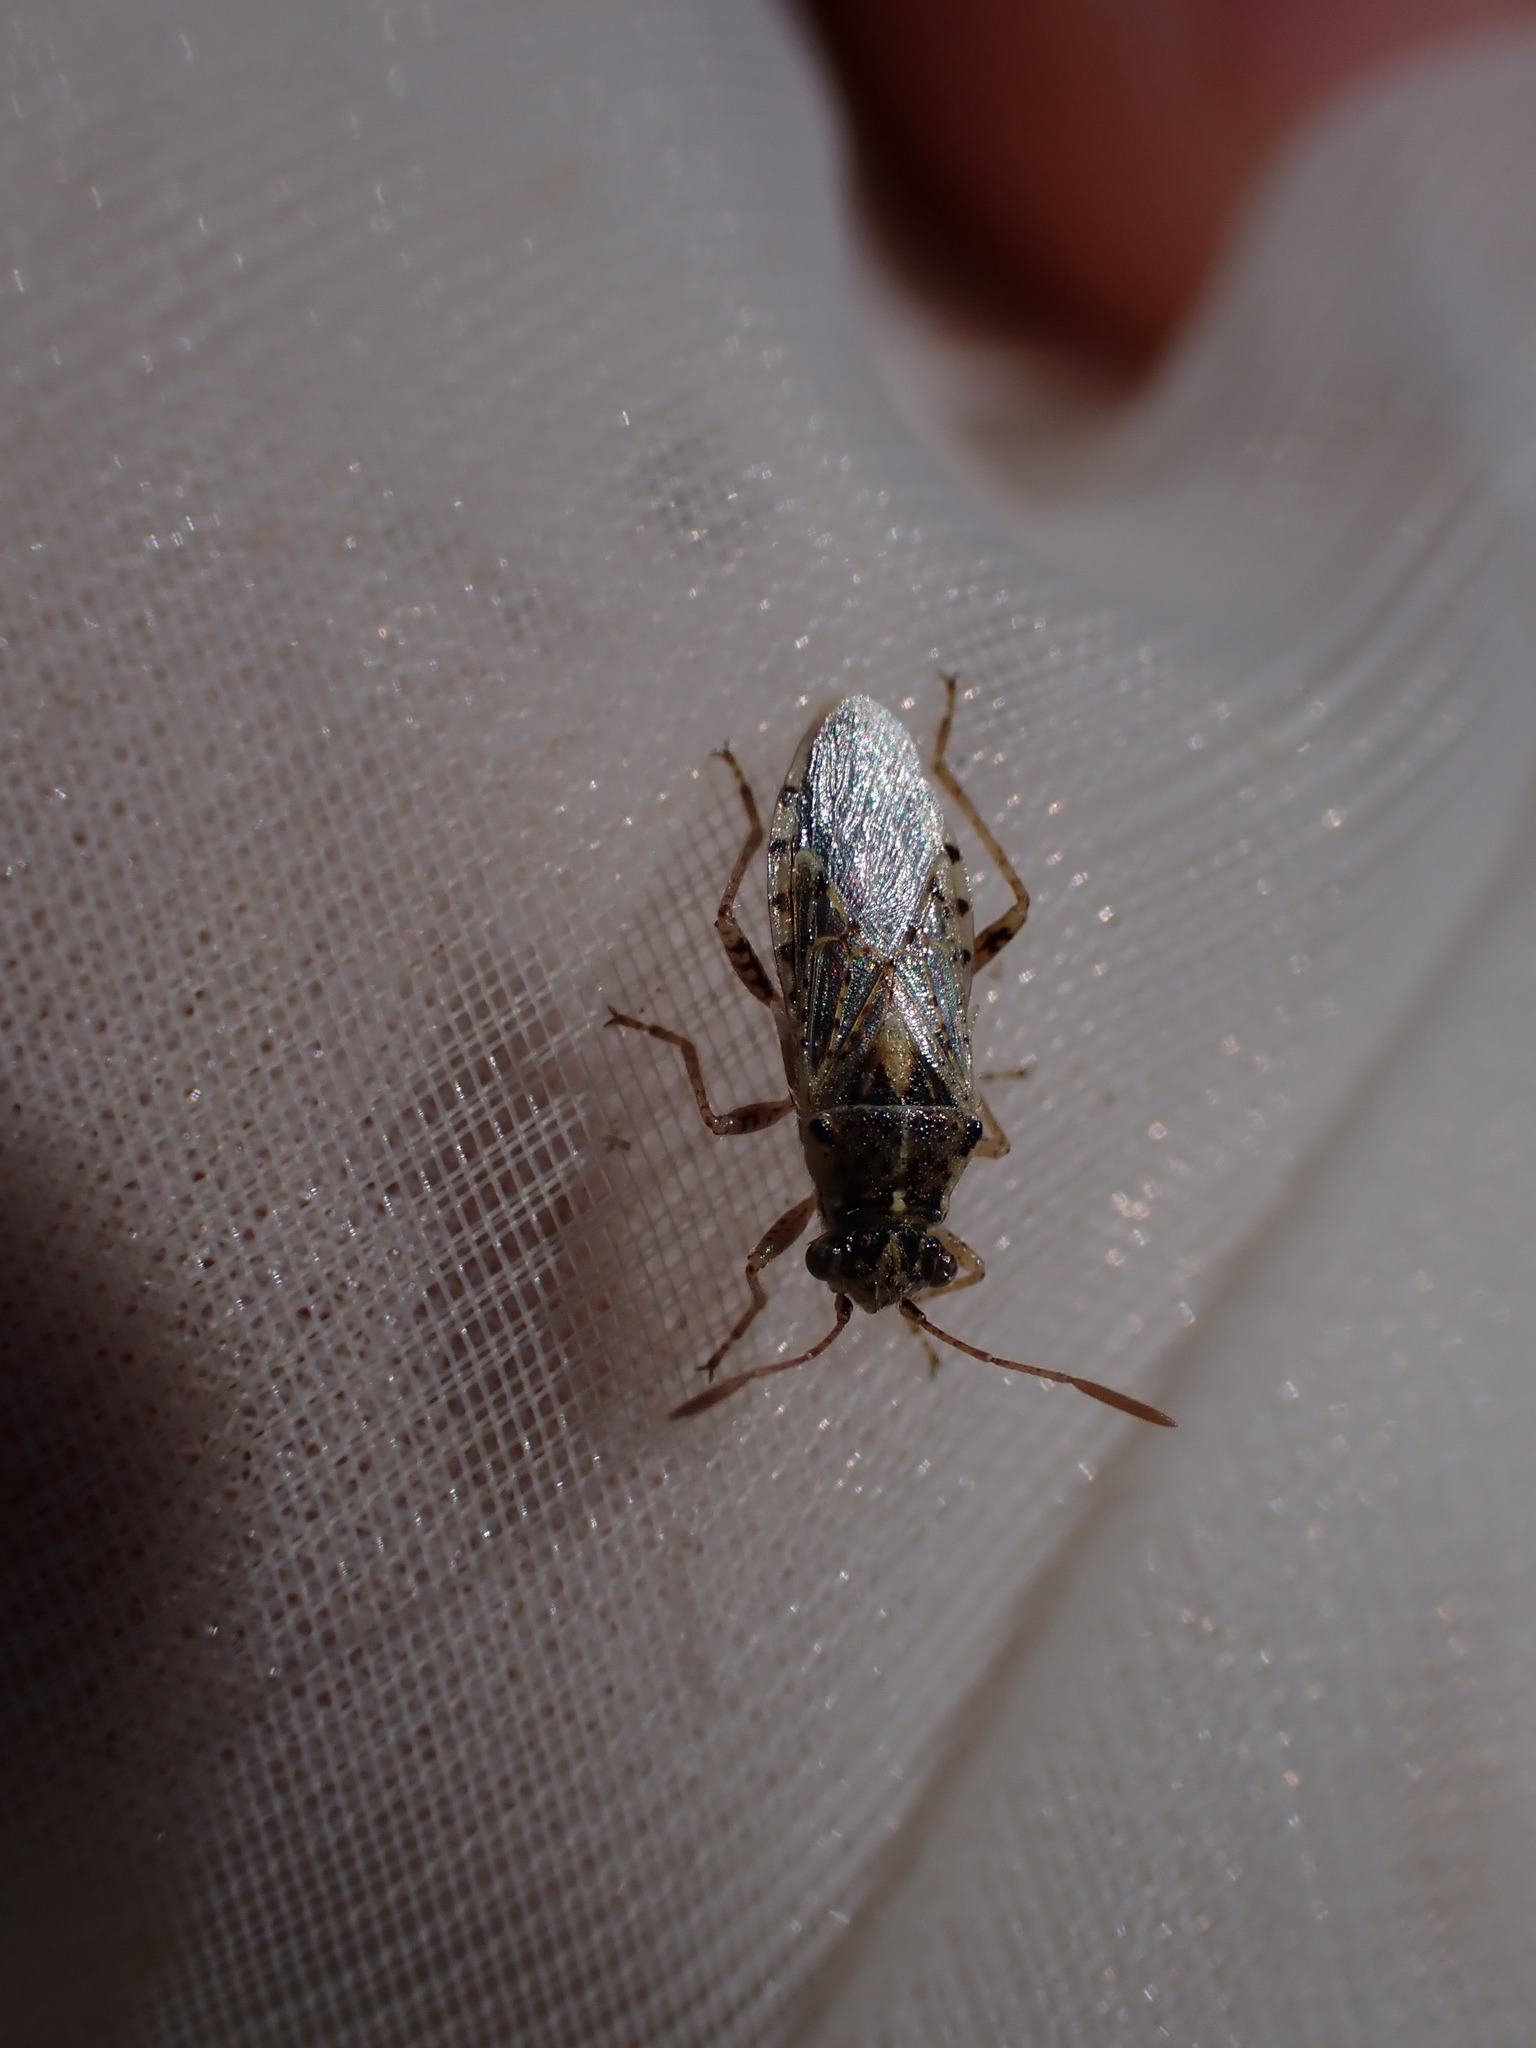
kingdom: Animalia
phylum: Arthropoda
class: Insecta
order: Hemiptera
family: Rhopalidae
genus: Brachycarenus
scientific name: Brachycarenus tigrinus
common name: Scentless plant bug
